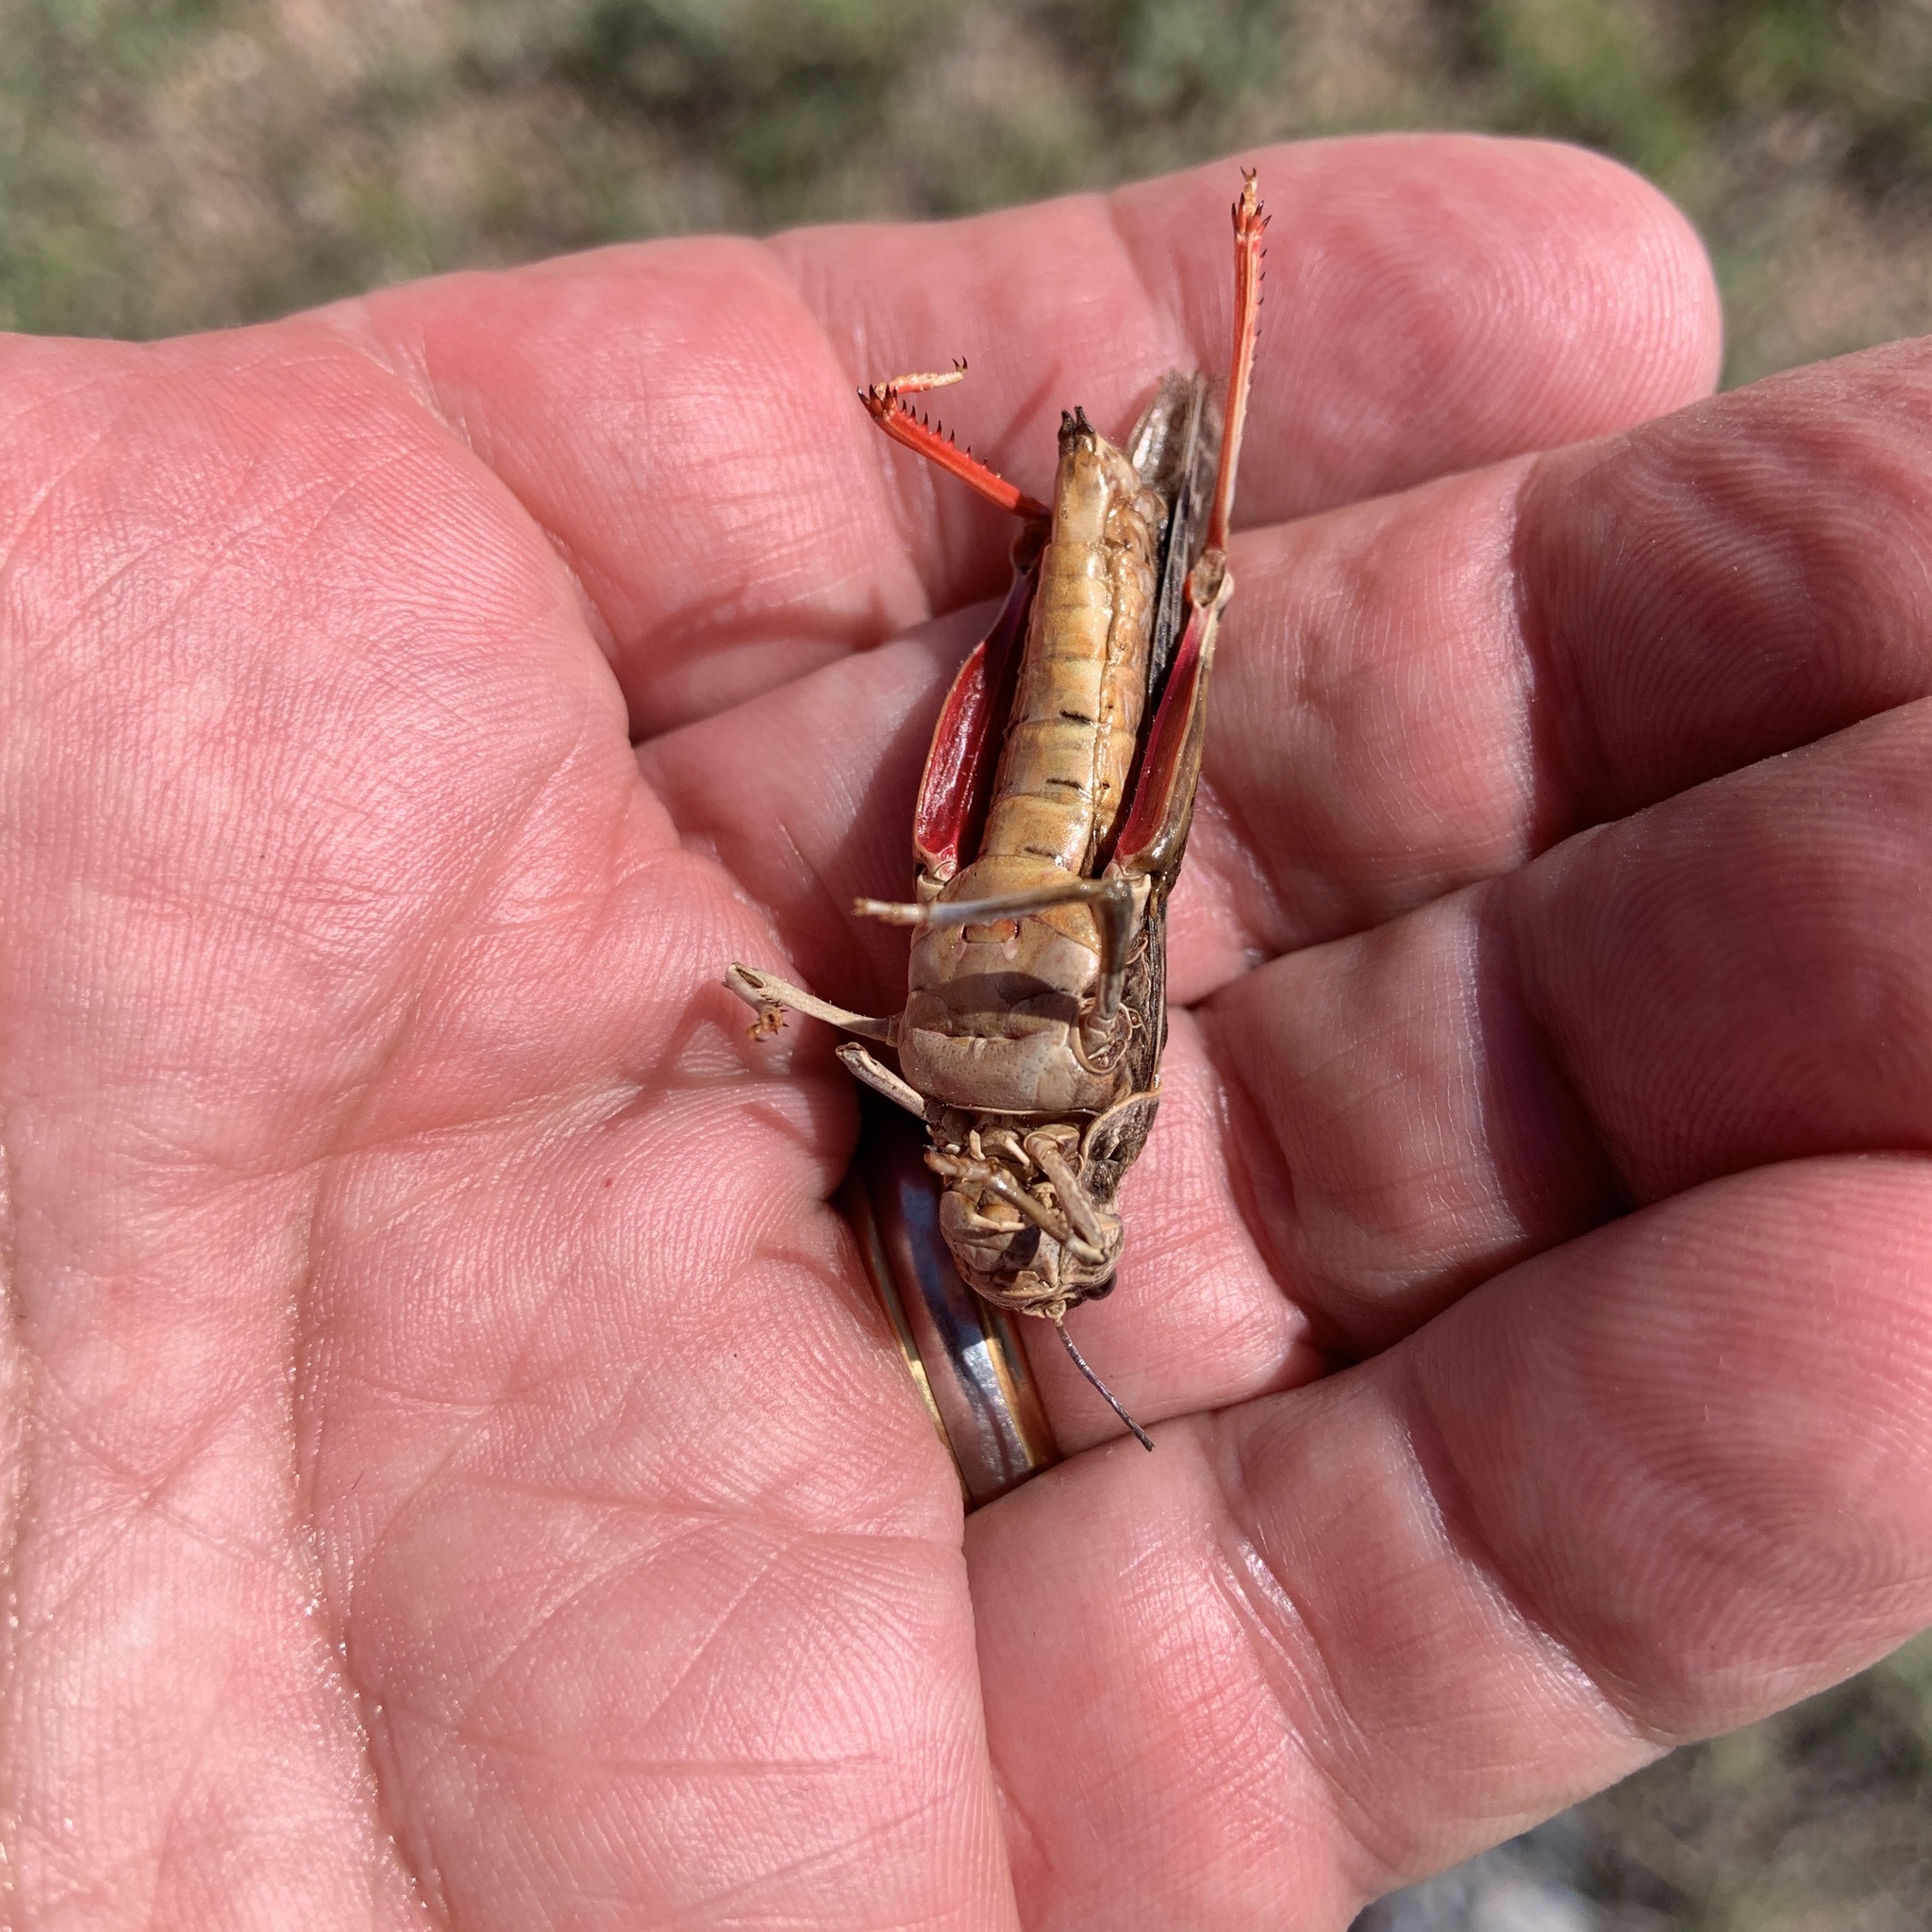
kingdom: Animalia
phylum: Arthropoda
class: Insecta
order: Orthoptera
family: Acrididae
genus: Xanthippus
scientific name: Xanthippus corallipes
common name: Redshanked grasshopper
